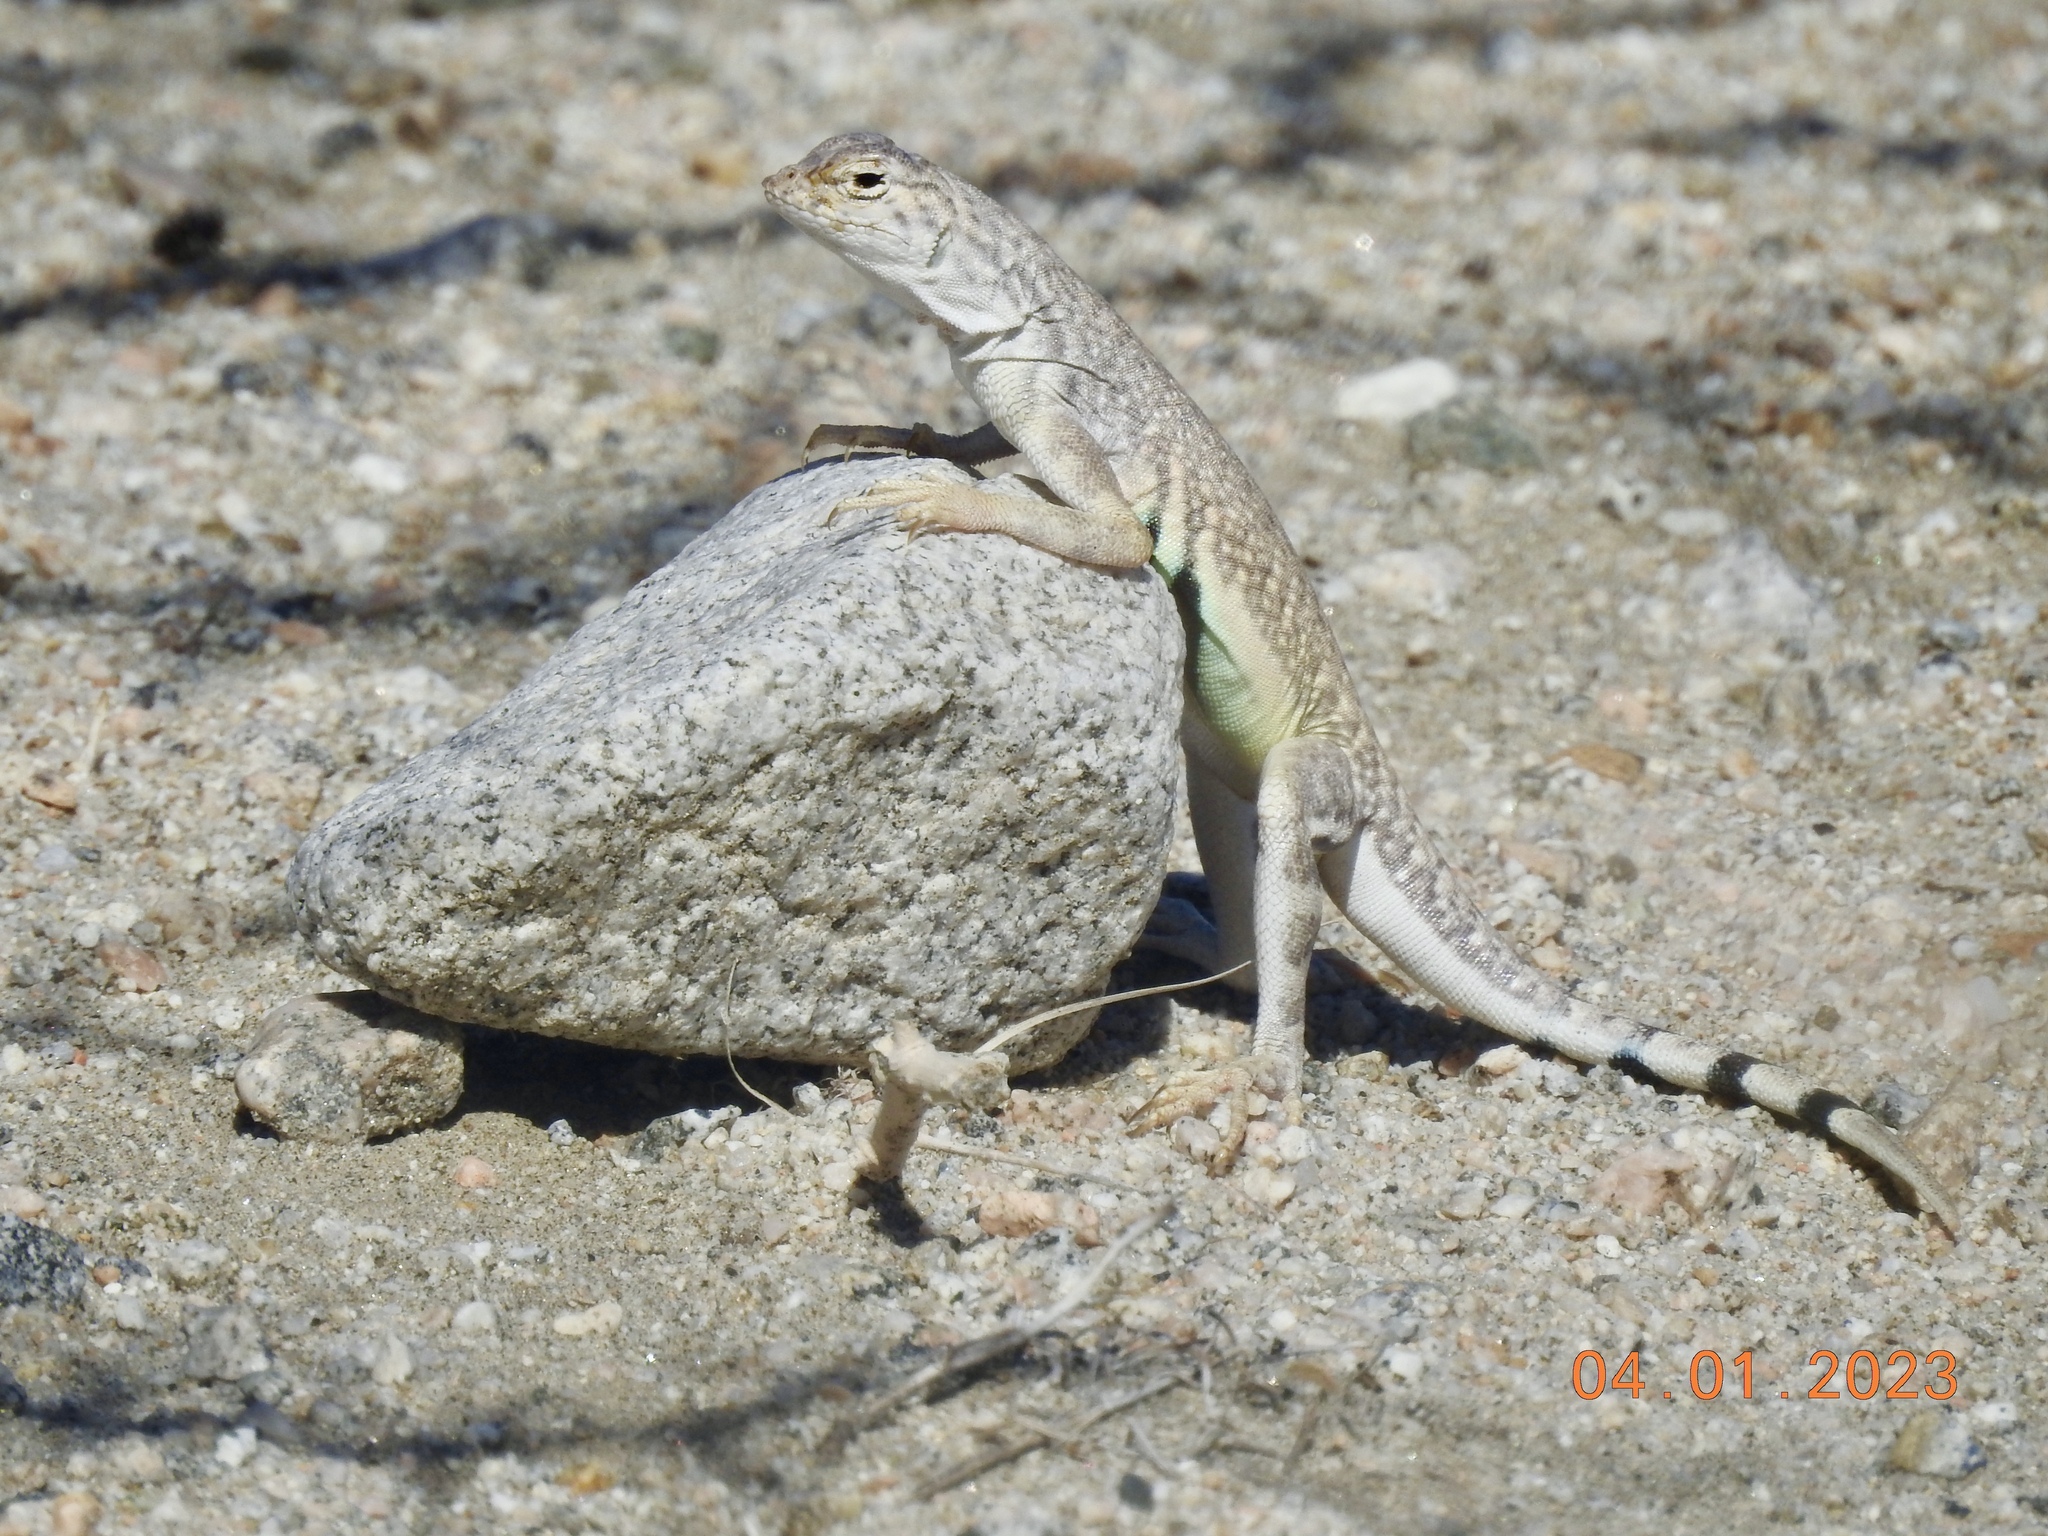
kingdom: Animalia
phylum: Chordata
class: Squamata
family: Phrynosomatidae
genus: Callisaurus
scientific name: Callisaurus draconoides
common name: Zebra-tailed lizard
